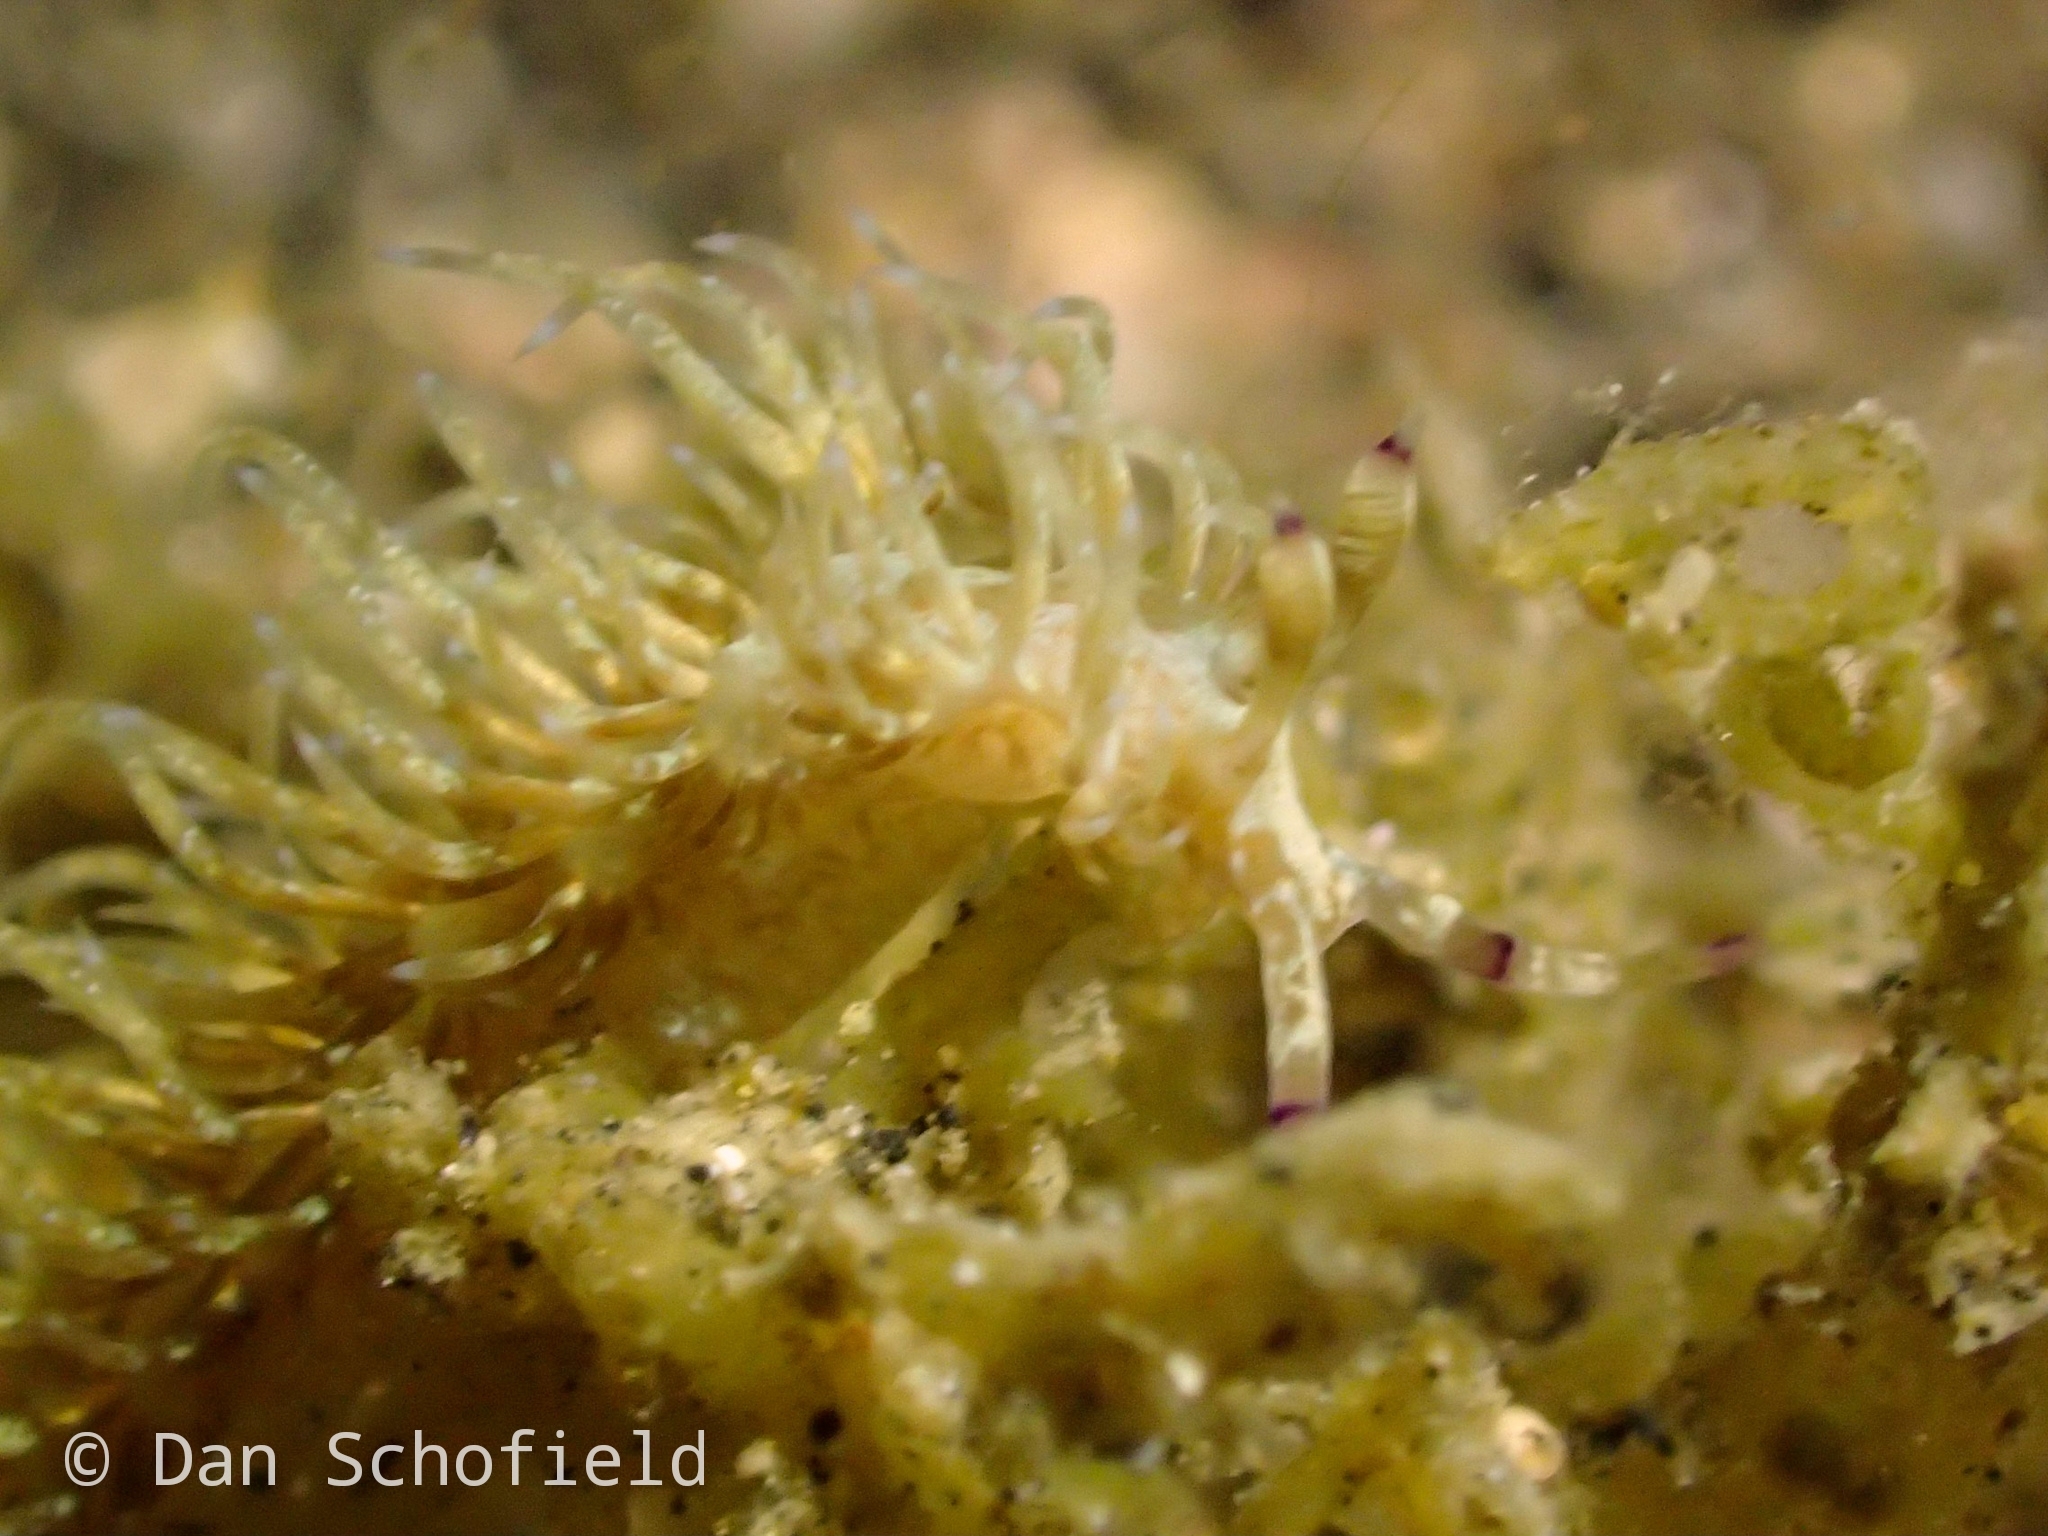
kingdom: Animalia
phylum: Mollusca
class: Gastropoda
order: Nudibranchia
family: Facelinidae
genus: Pteraeolidia
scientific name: Pteraeolidia semperi
